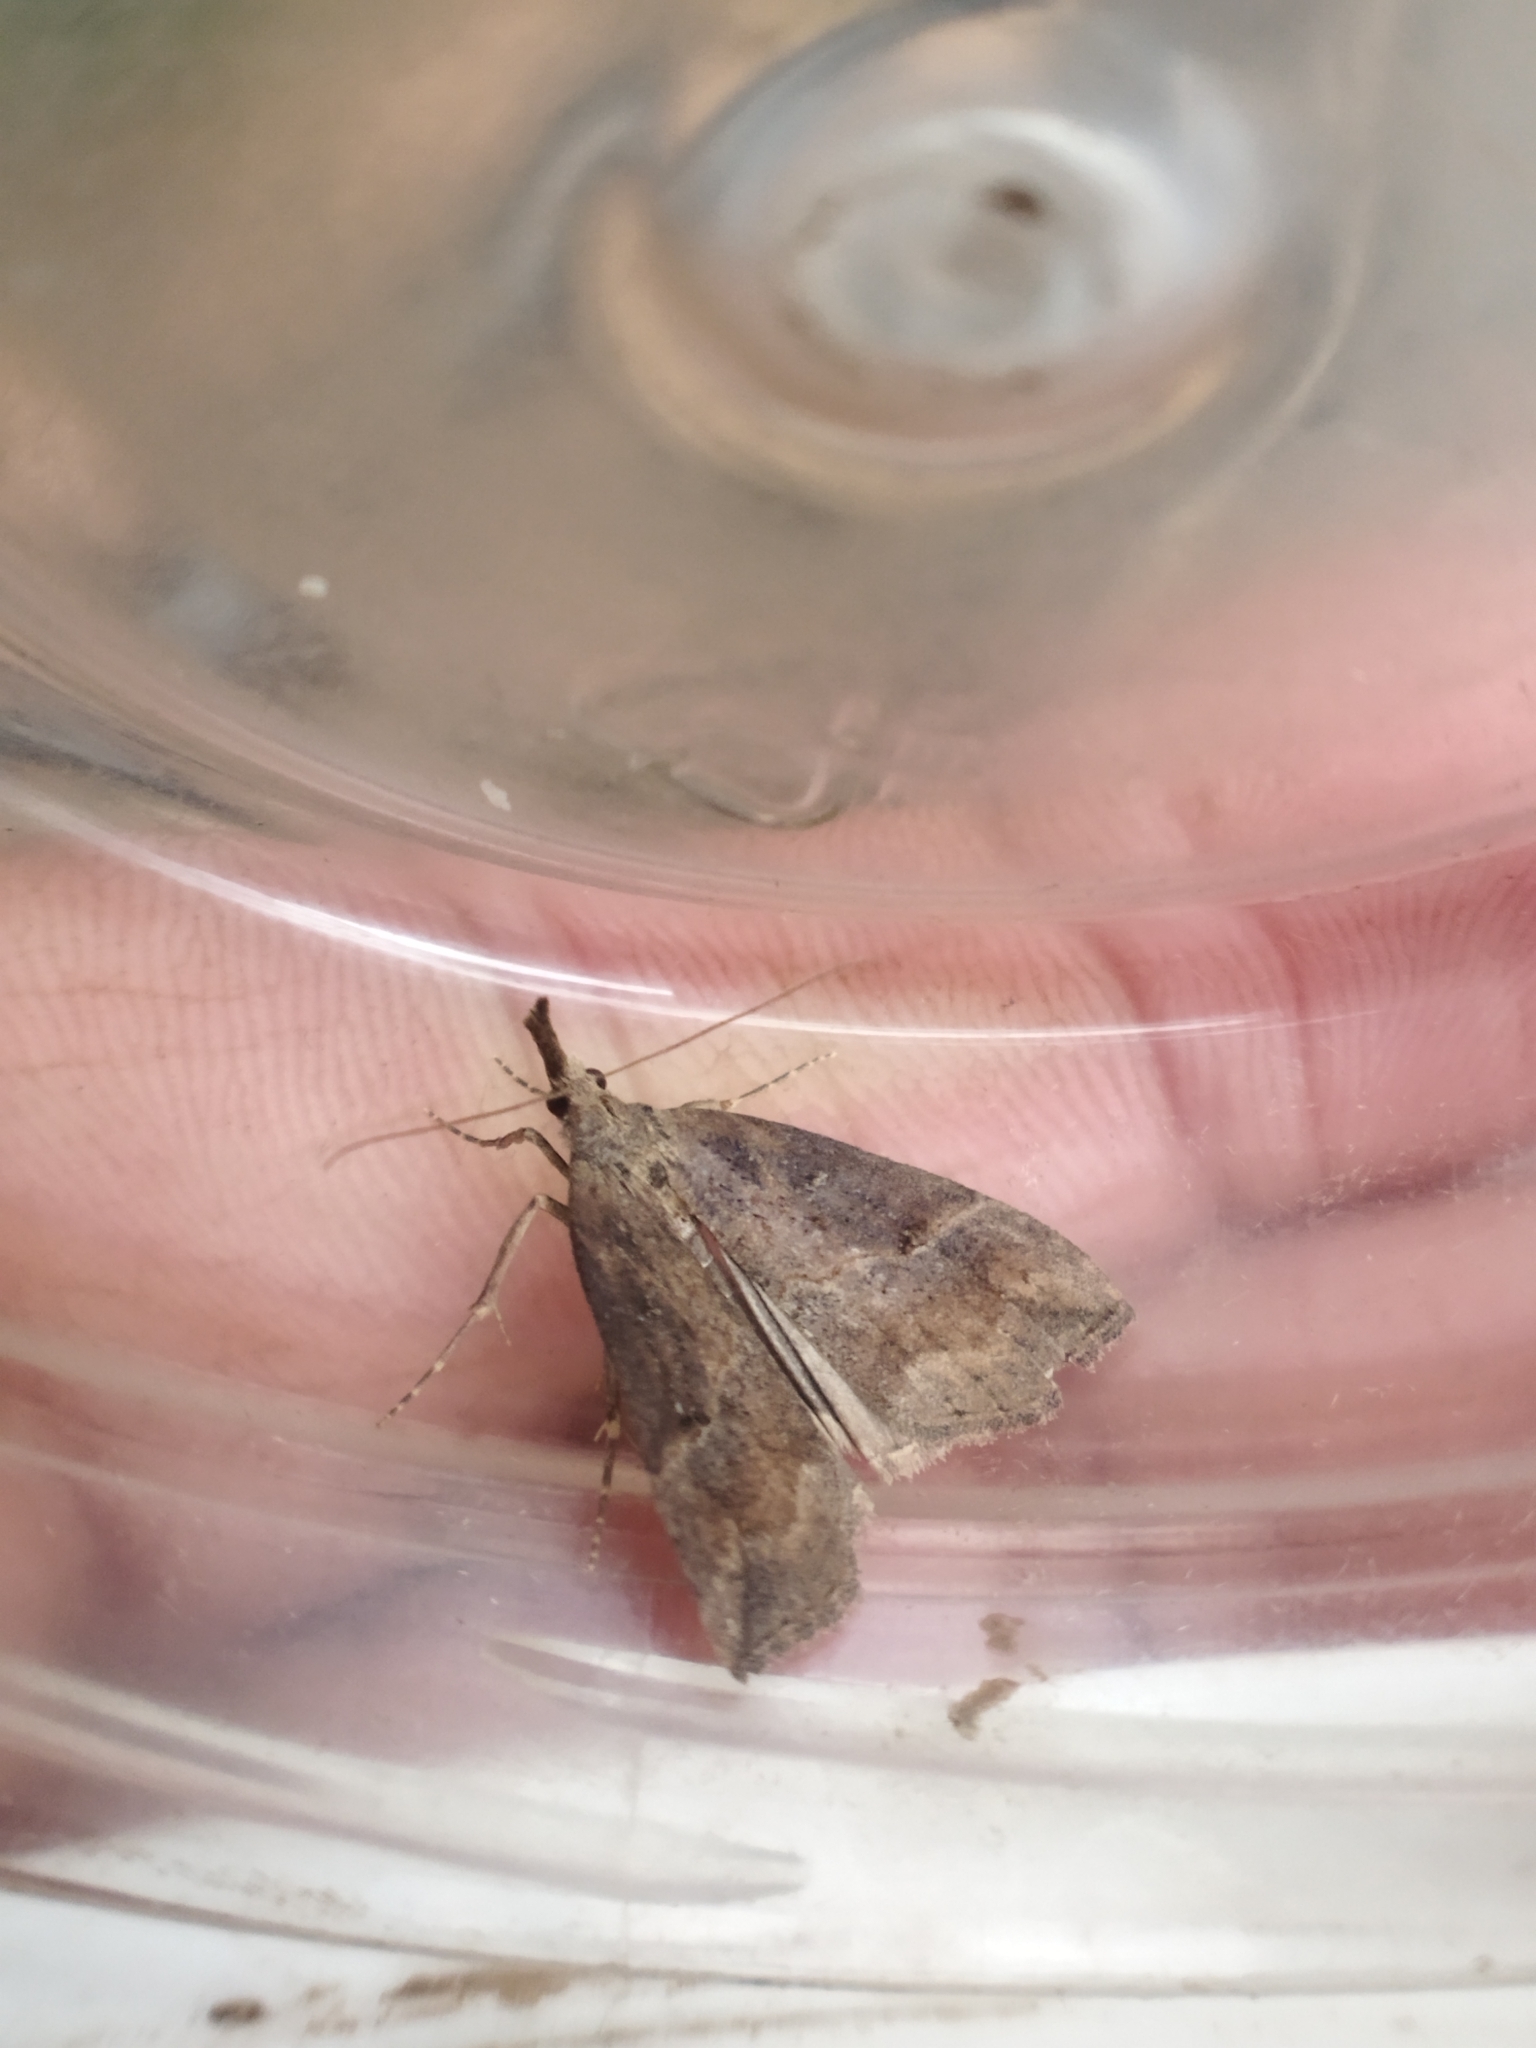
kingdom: Animalia
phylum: Arthropoda
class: Insecta
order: Lepidoptera
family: Erebidae
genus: Hypena
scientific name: Hypena rostralis
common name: Buttoned snout
